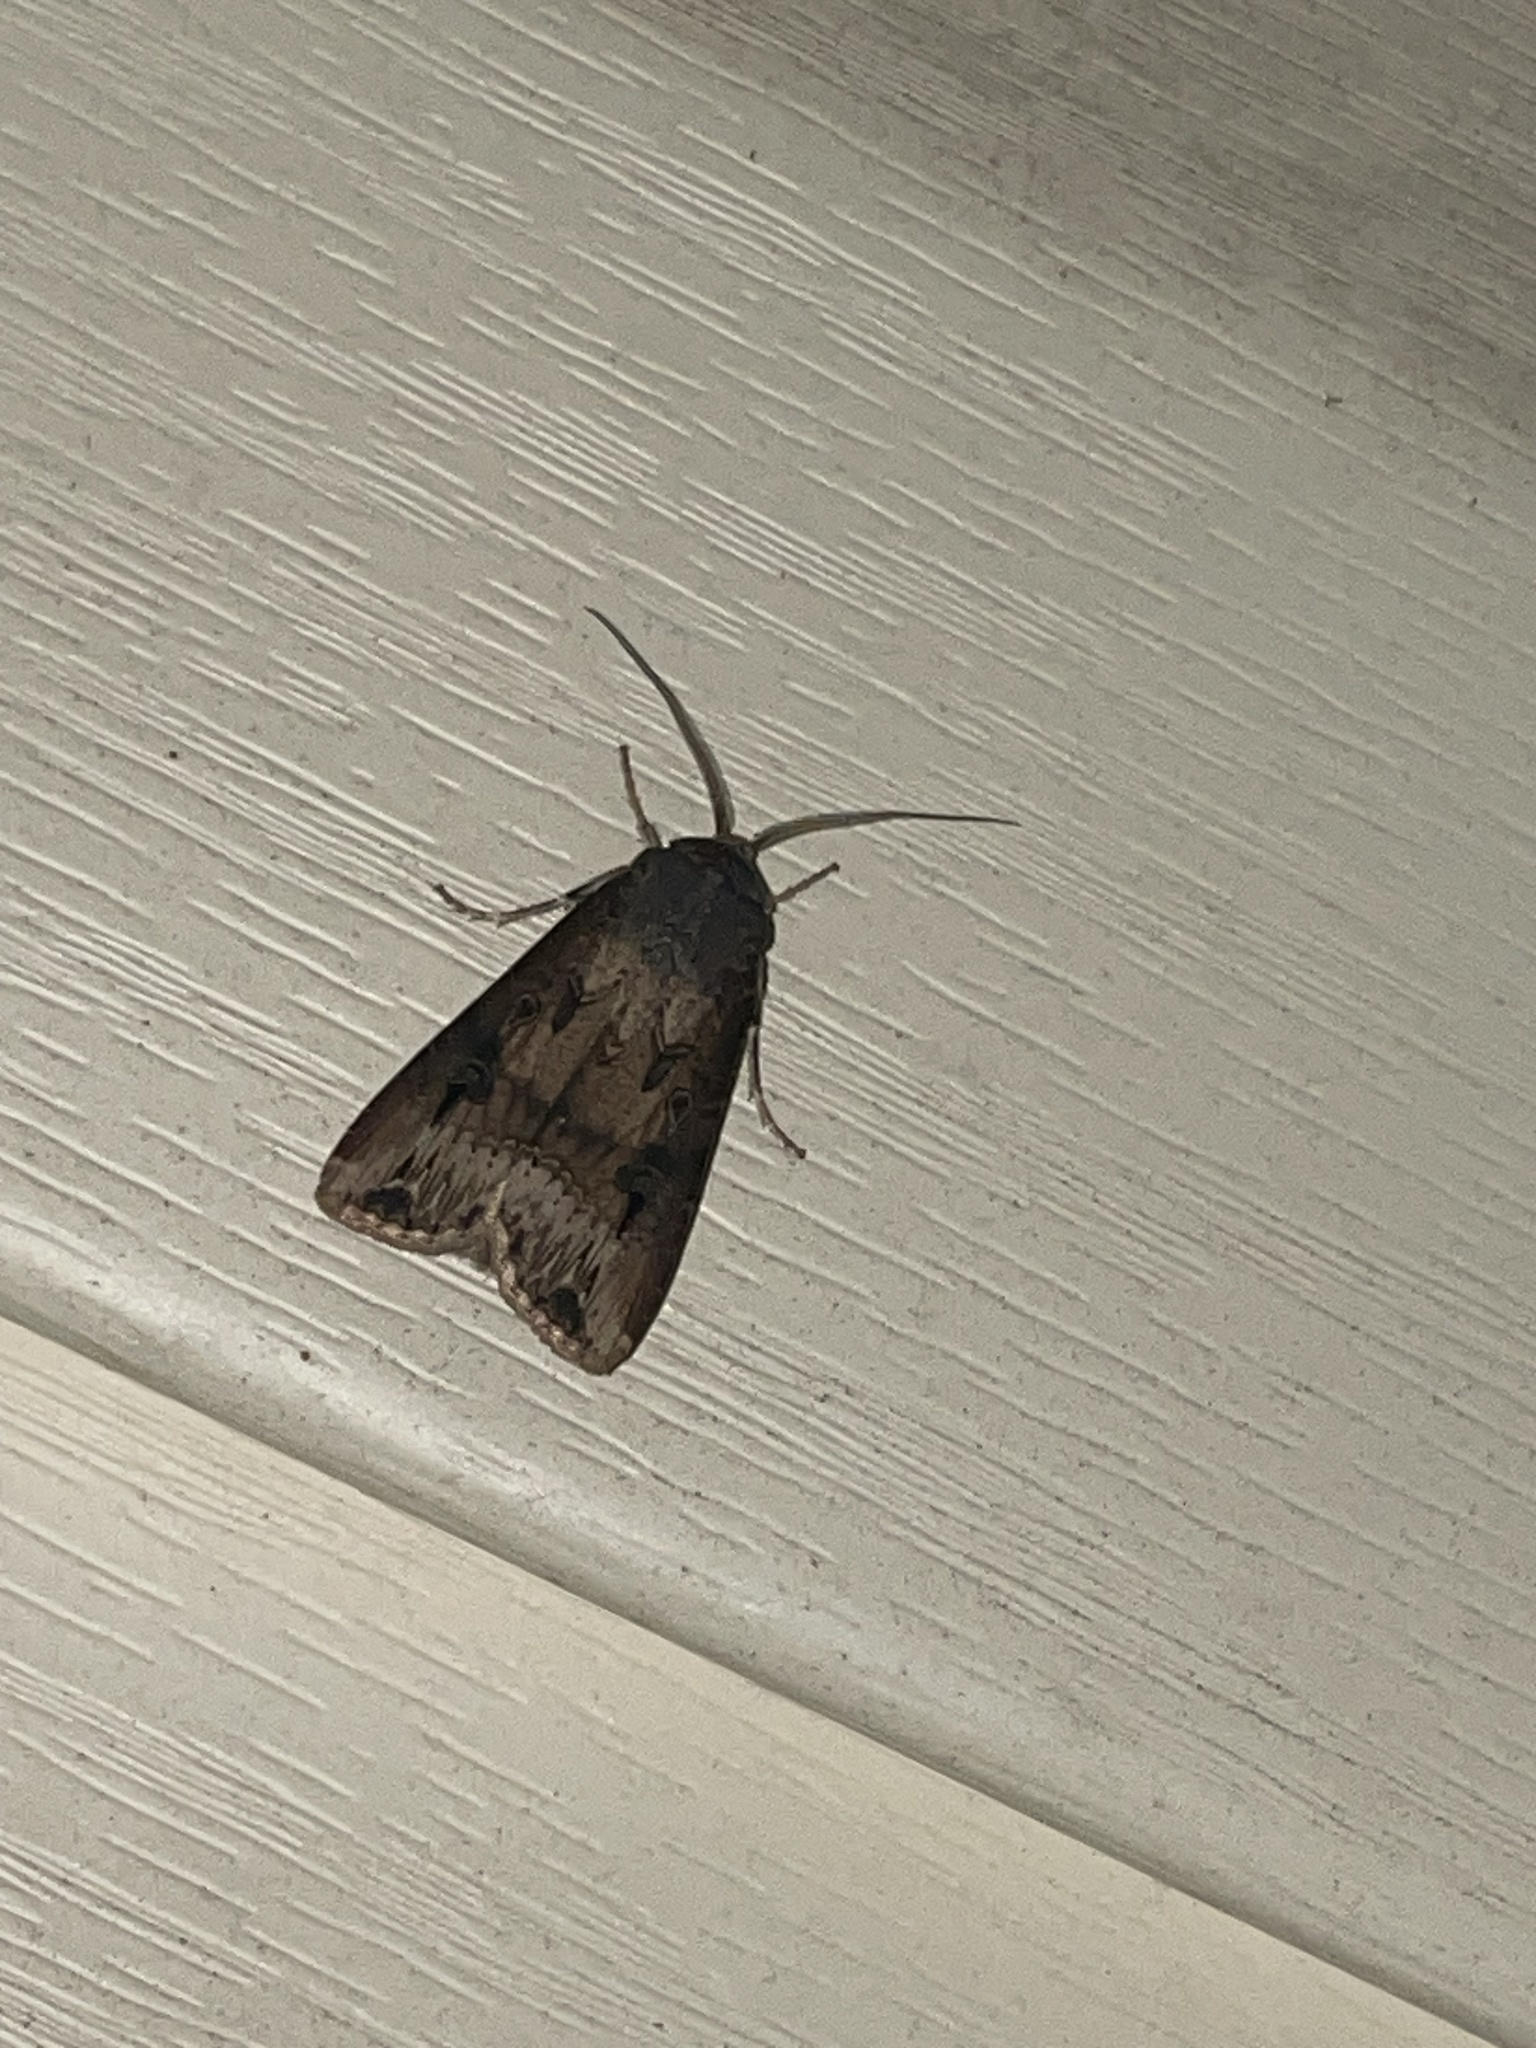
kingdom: Animalia
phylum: Arthropoda
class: Insecta
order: Lepidoptera
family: Noctuidae
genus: Agrotis
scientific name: Agrotis ipsilon
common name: Dark sword-grass
